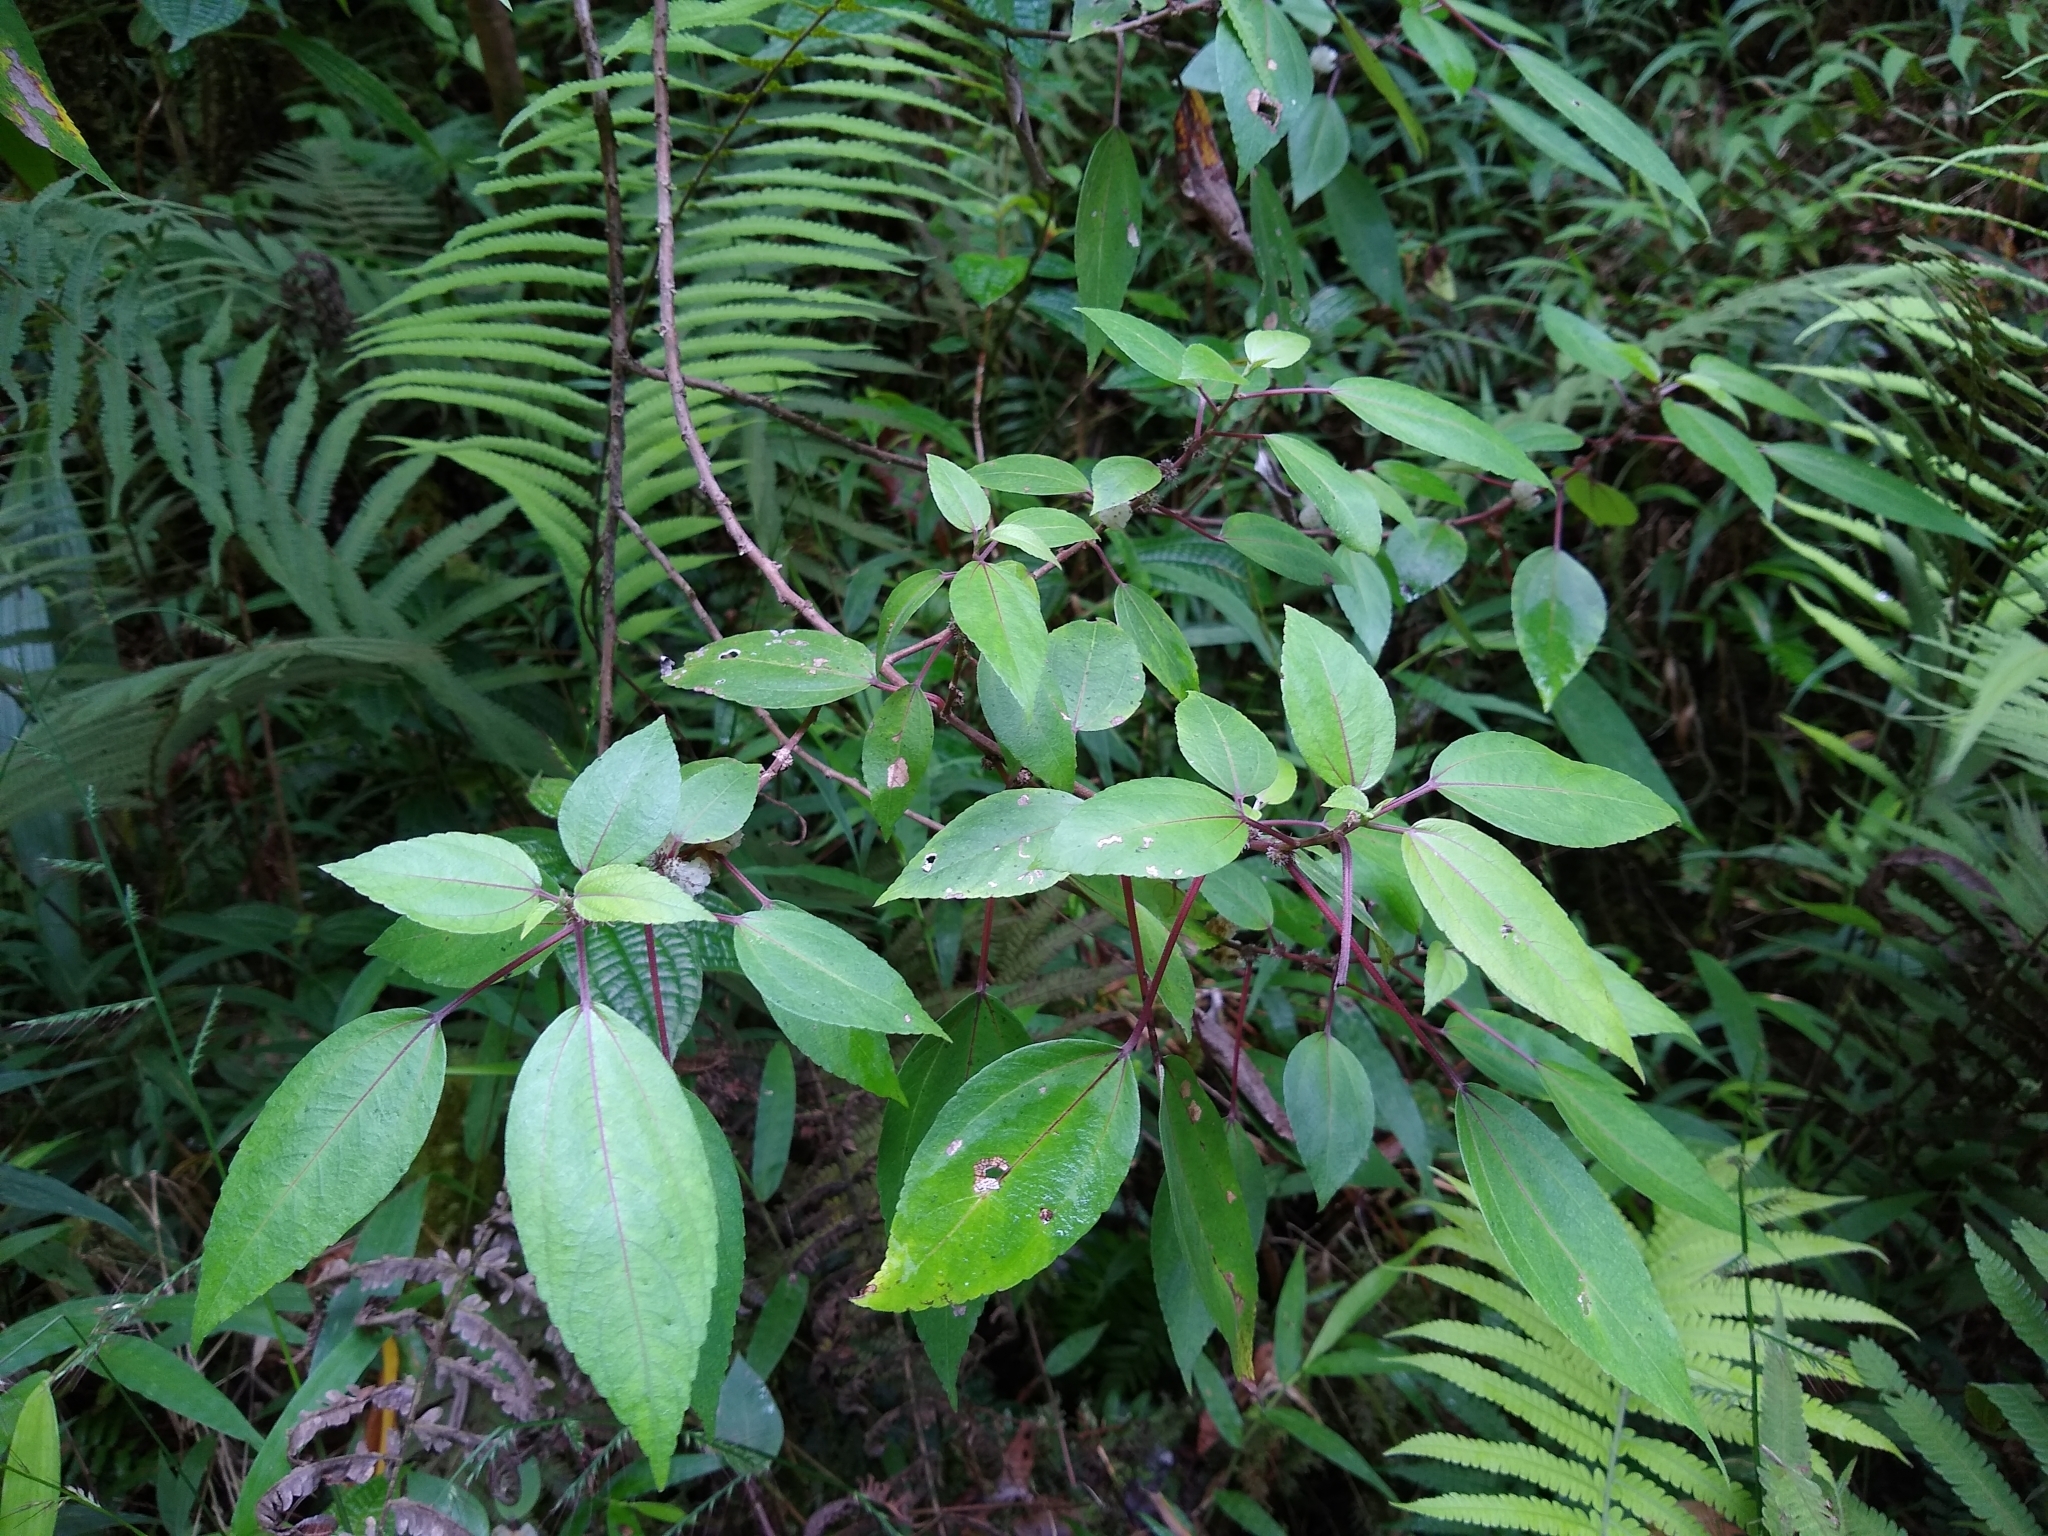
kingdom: Plantae
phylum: Tracheophyta
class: Magnoliopsida
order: Rosales
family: Urticaceae
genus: Pipturus
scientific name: Pipturus albidus
